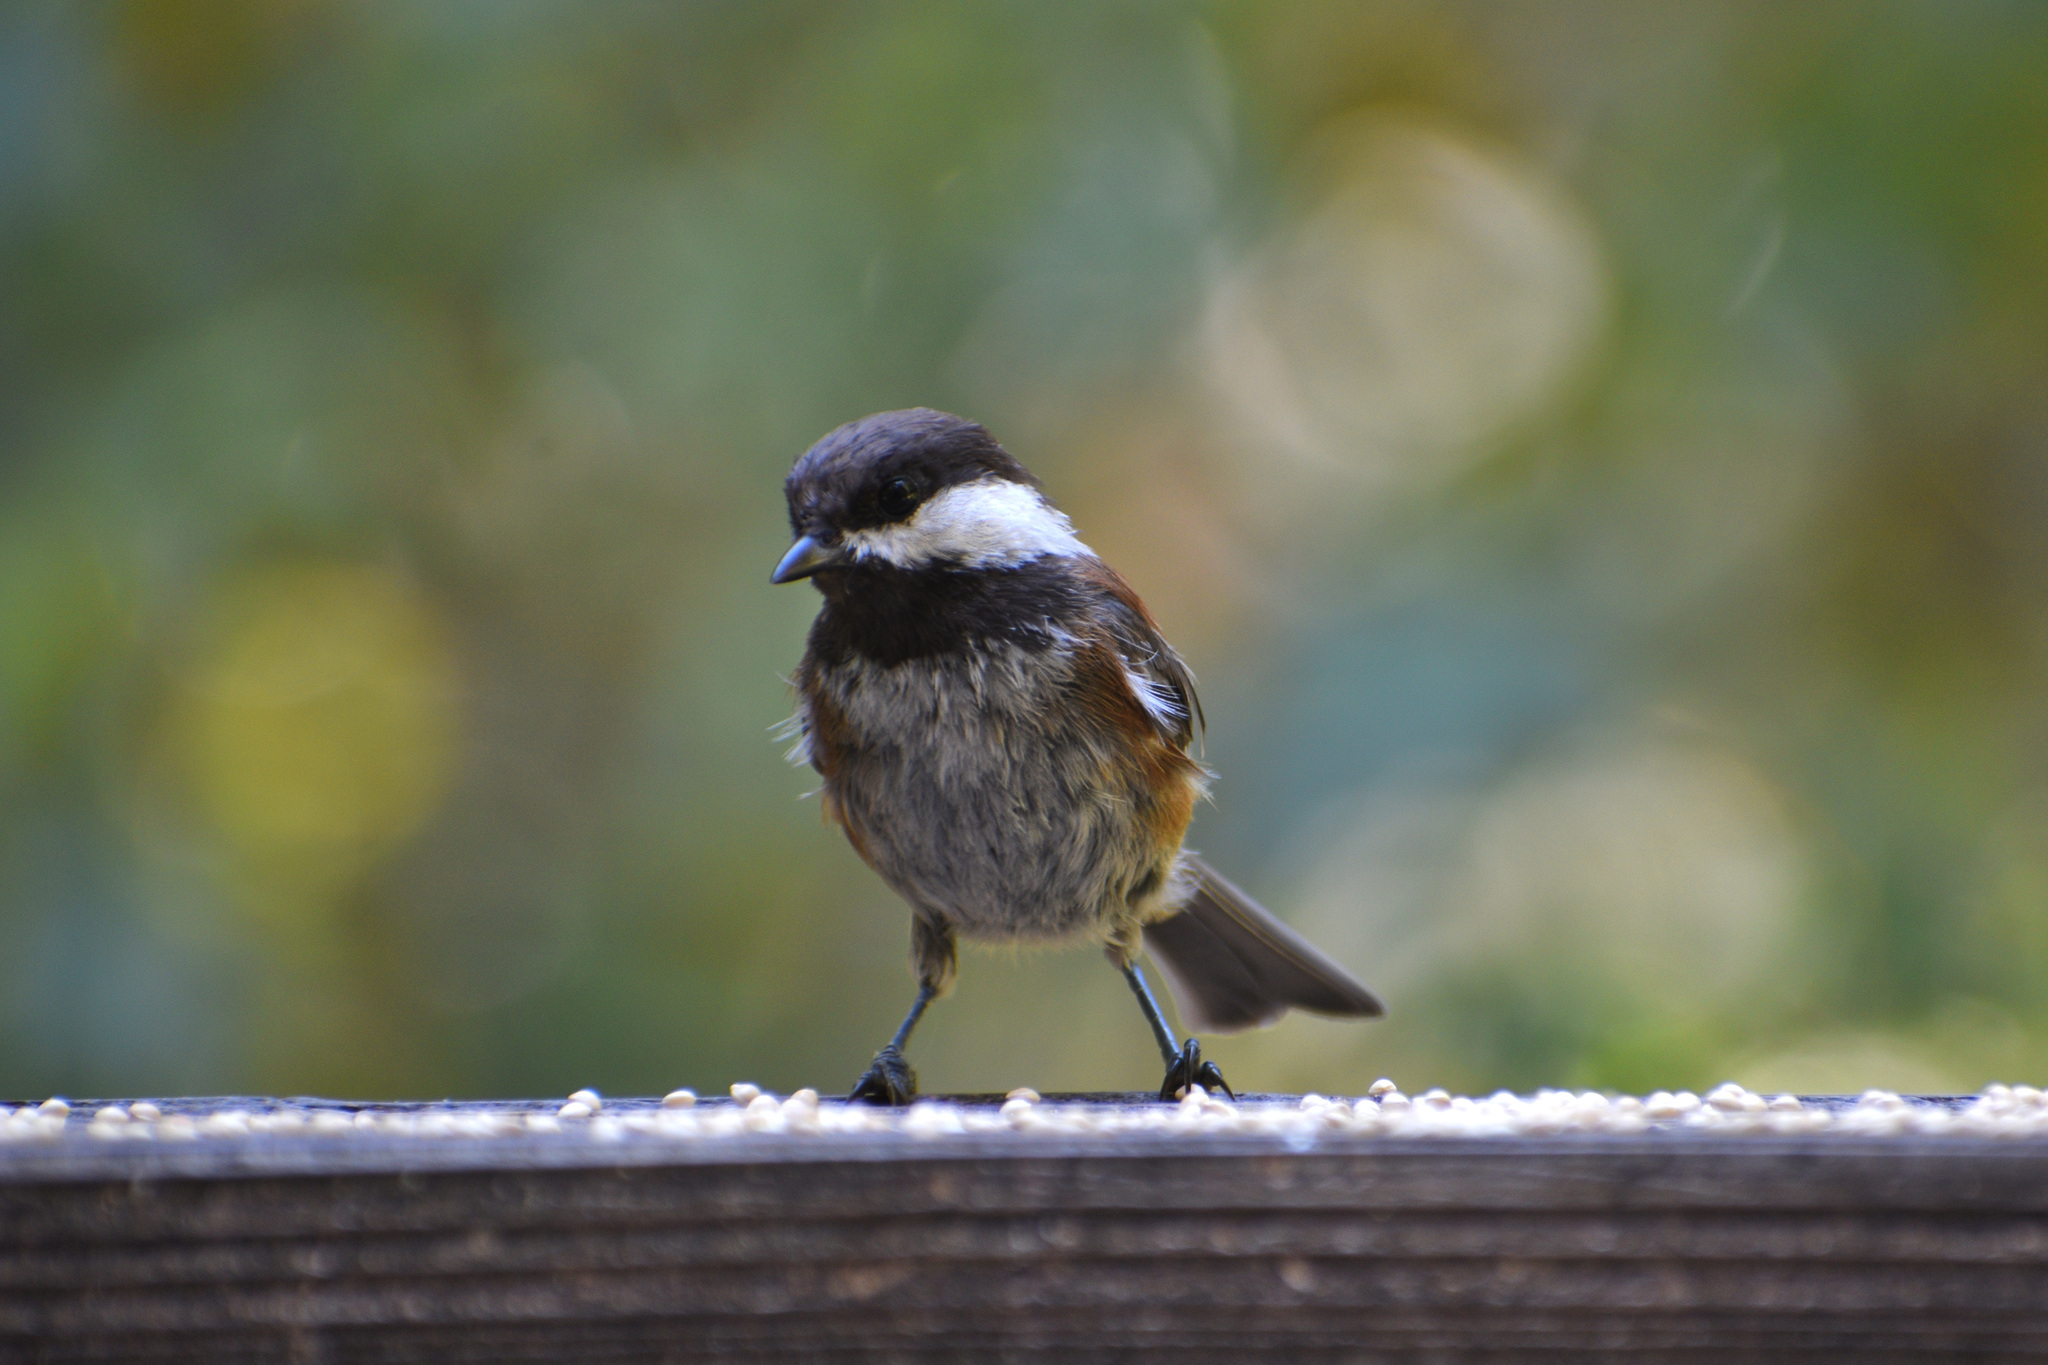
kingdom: Animalia
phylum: Chordata
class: Aves
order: Passeriformes
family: Paridae
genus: Poecile
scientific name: Poecile rufescens
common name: Chestnut-backed chickadee
